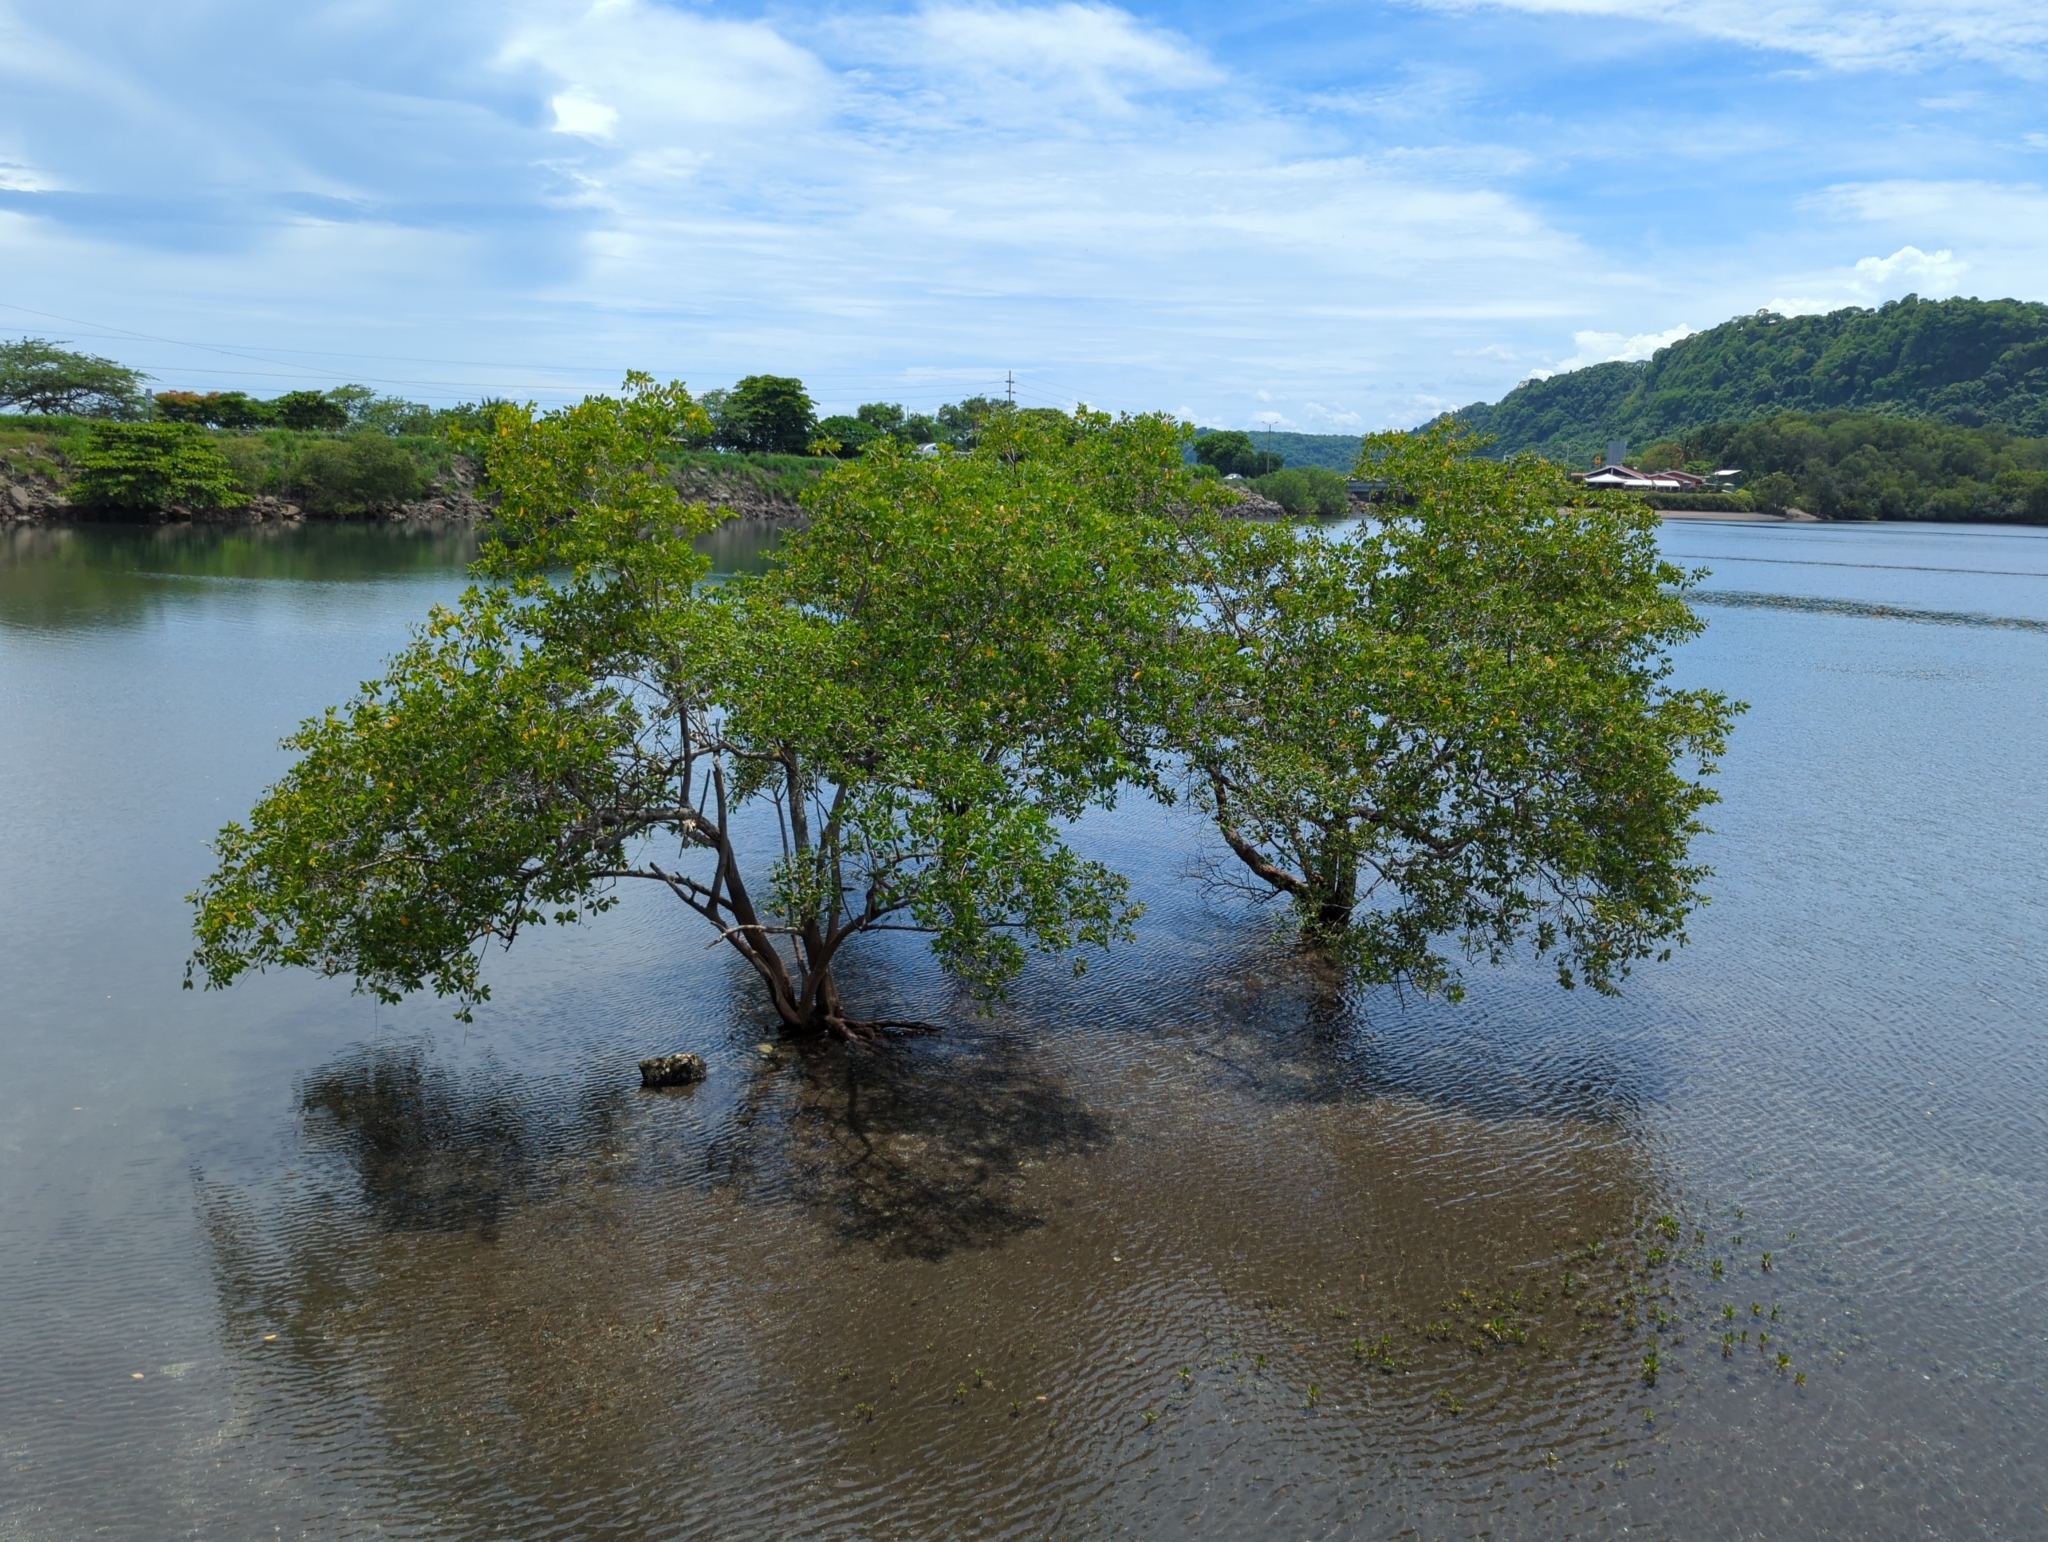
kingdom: Plantae
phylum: Tracheophyta
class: Magnoliopsida
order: Myrtales
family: Combretaceae
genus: Laguncularia
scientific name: Laguncularia racemosa
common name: White mangrove
